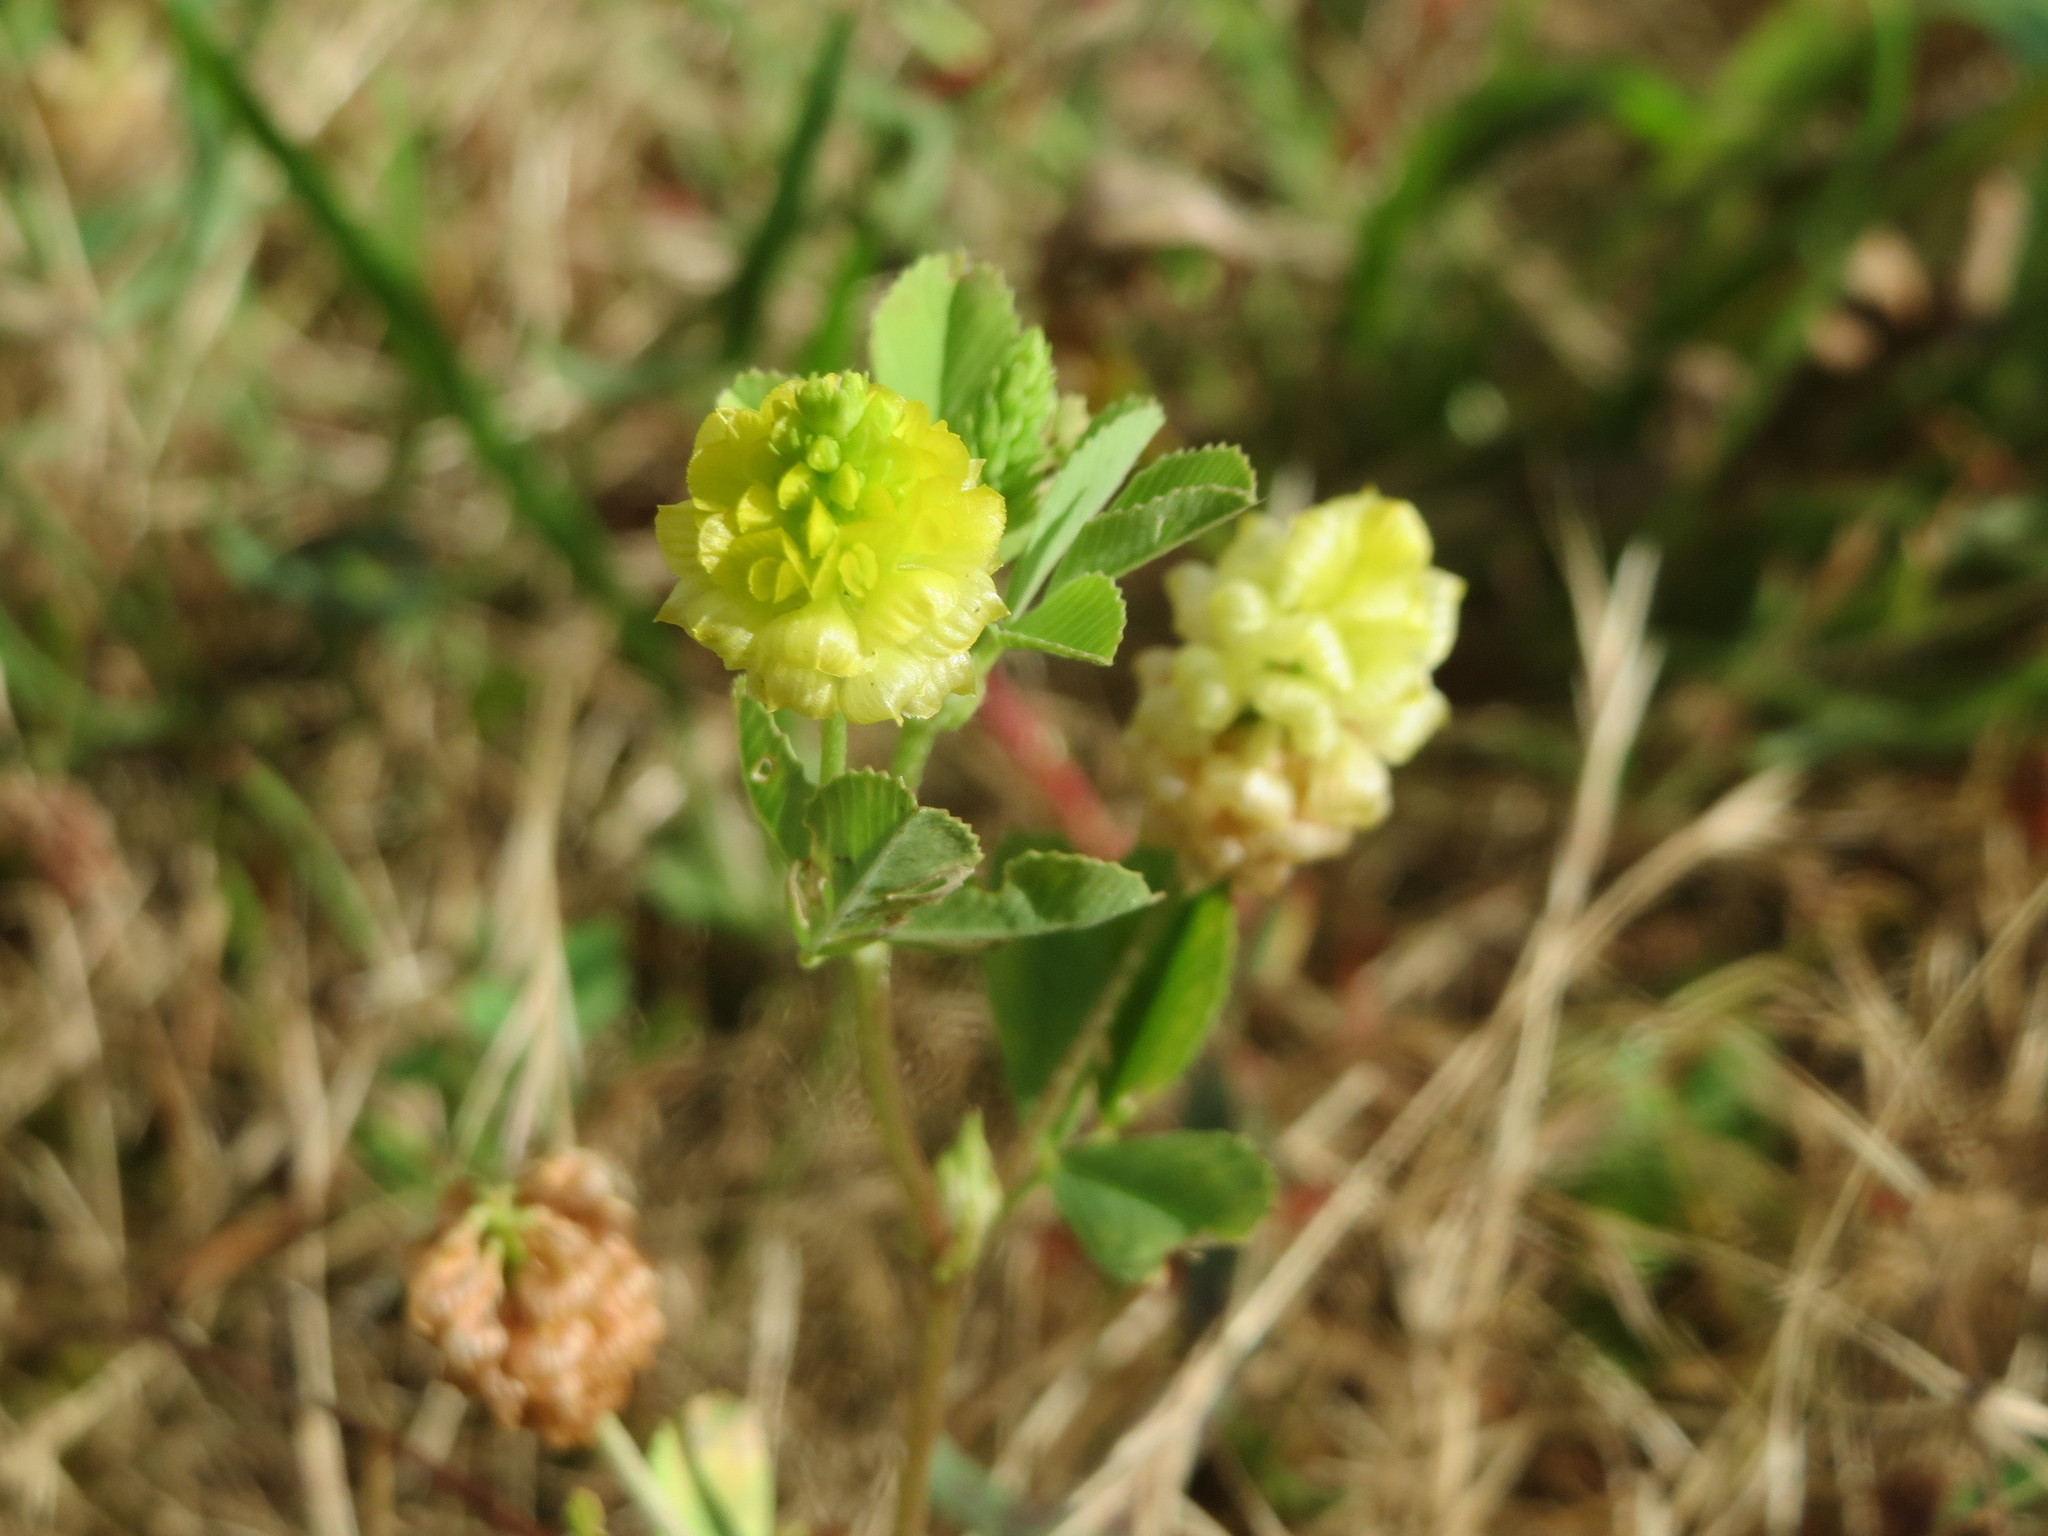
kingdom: Plantae
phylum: Tracheophyta
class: Magnoliopsida
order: Fabales
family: Fabaceae
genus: Trifolium
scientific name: Trifolium campestre
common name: Field clover
